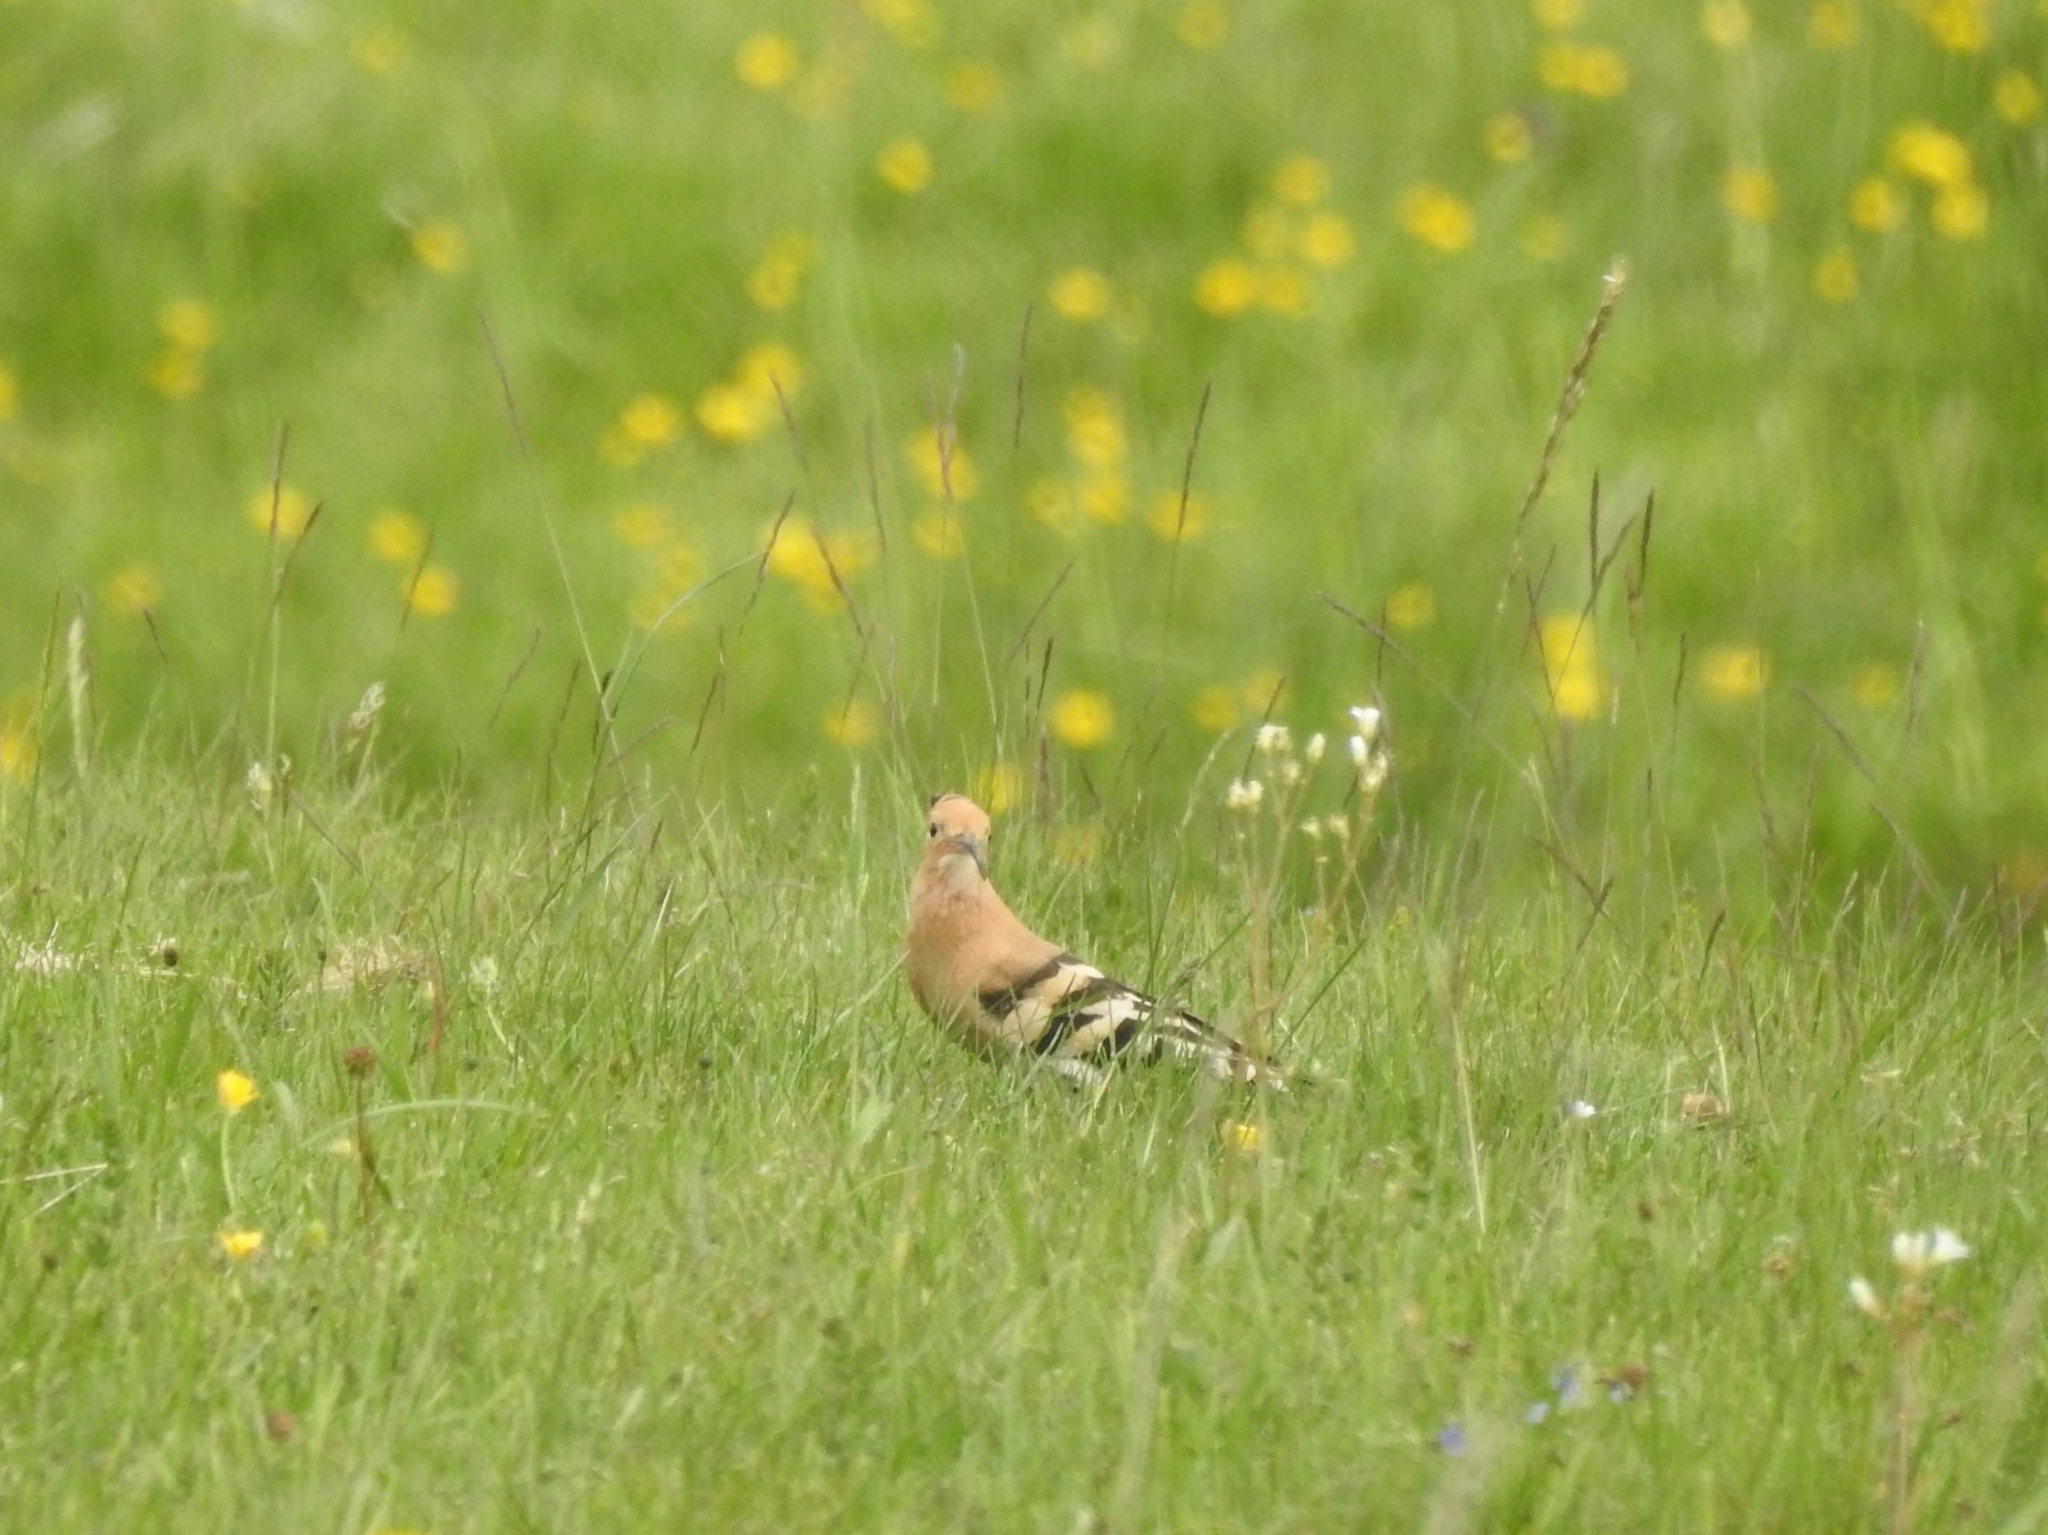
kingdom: Animalia
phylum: Chordata
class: Aves
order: Bucerotiformes
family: Upupidae
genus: Upupa
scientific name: Upupa epops
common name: Eurasian hoopoe
